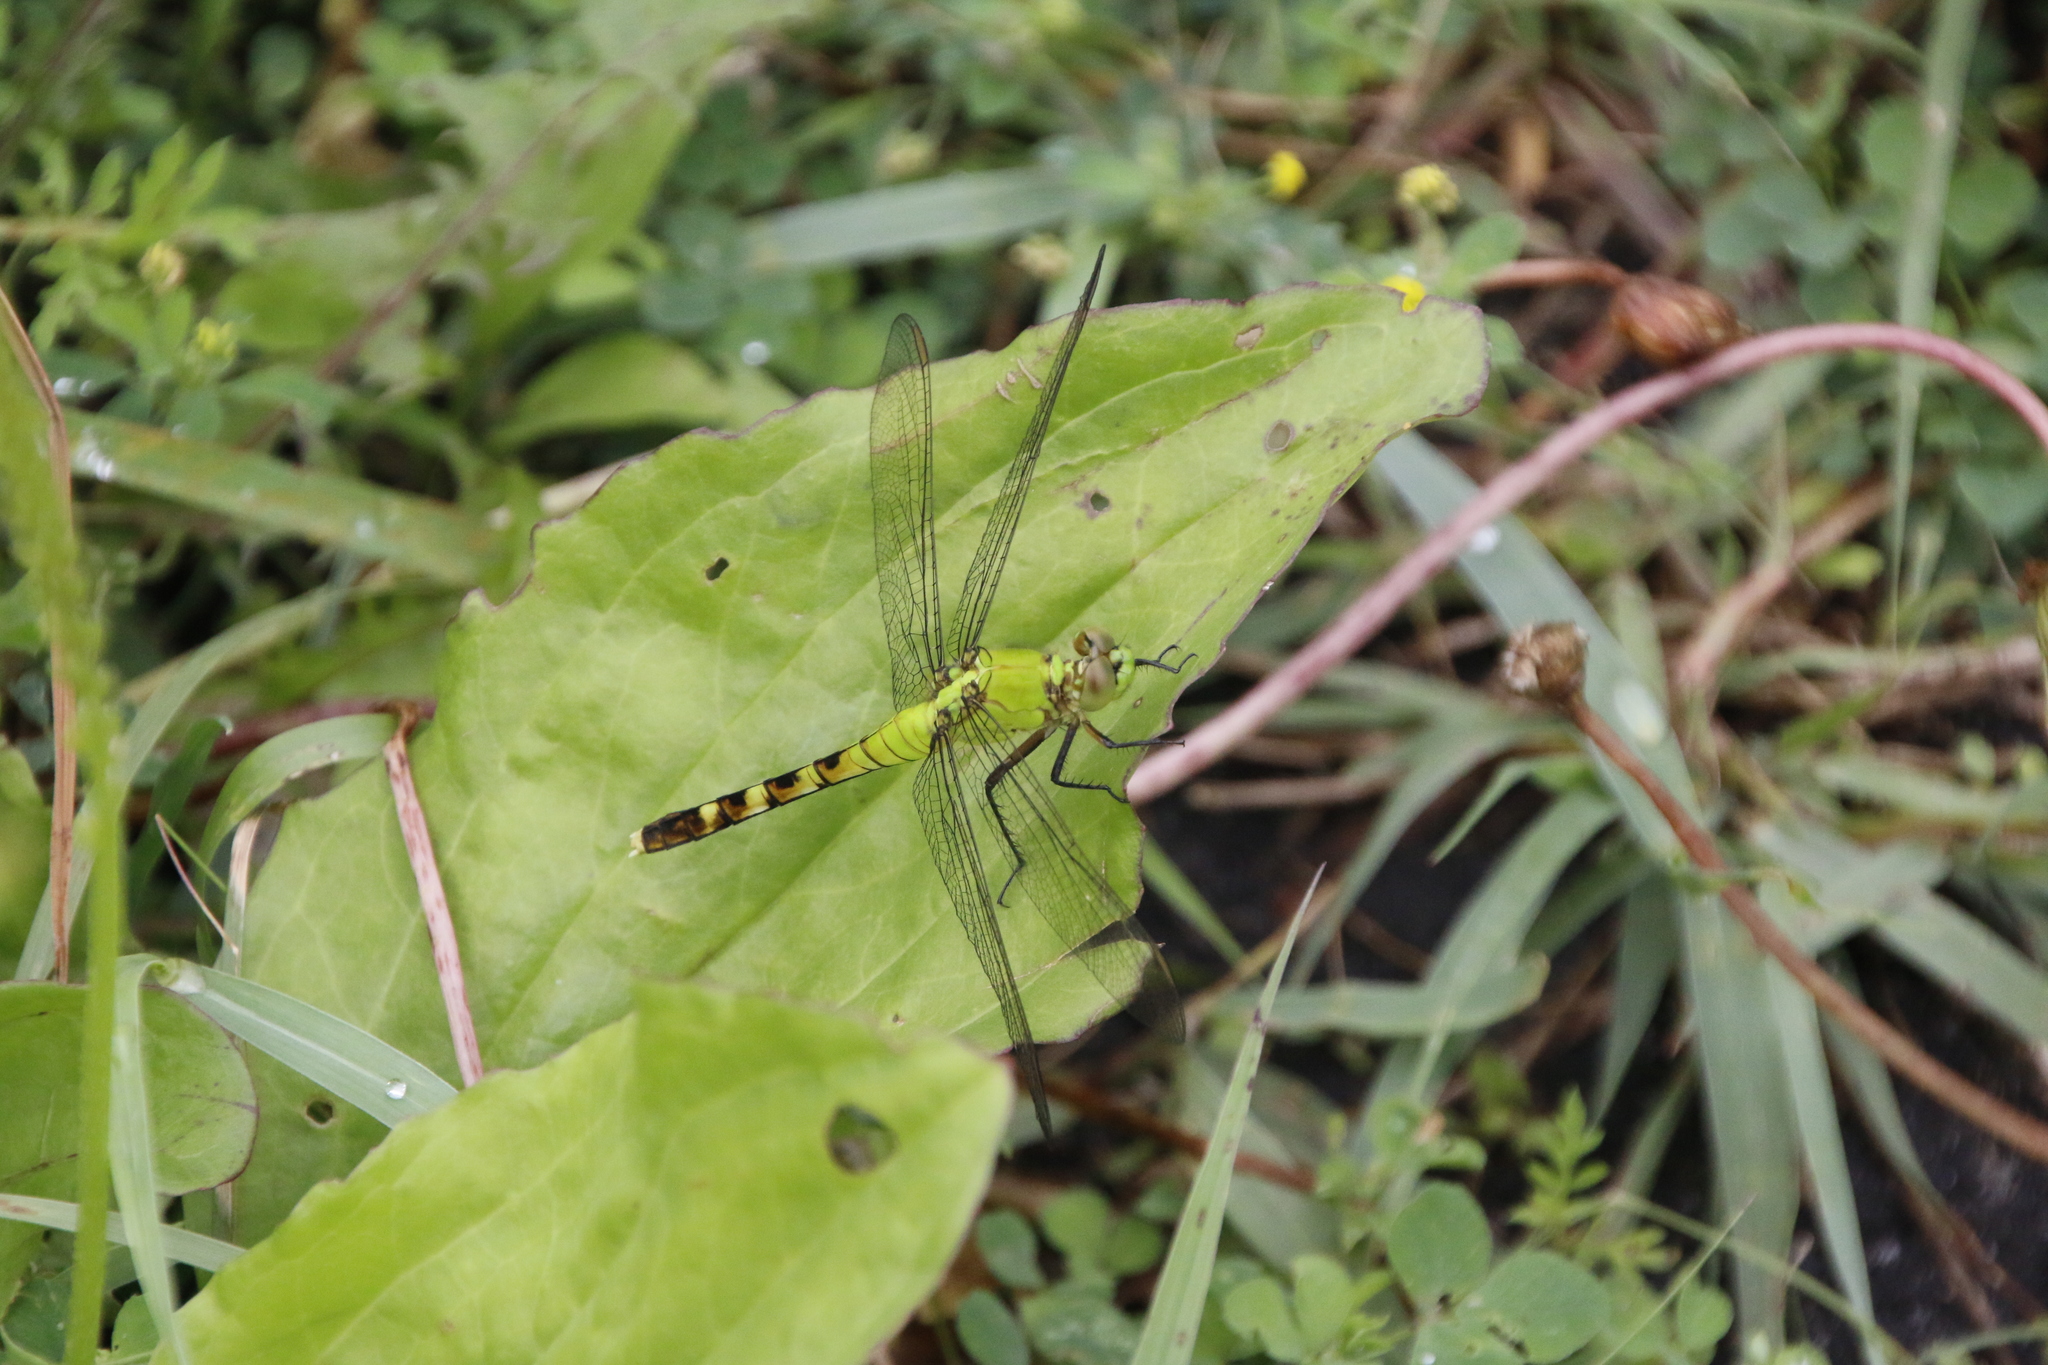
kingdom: Animalia
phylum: Arthropoda
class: Insecta
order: Odonata
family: Libellulidae
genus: Erythemis
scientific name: Erythemis simplicicollis
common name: Eastern pondhawk
